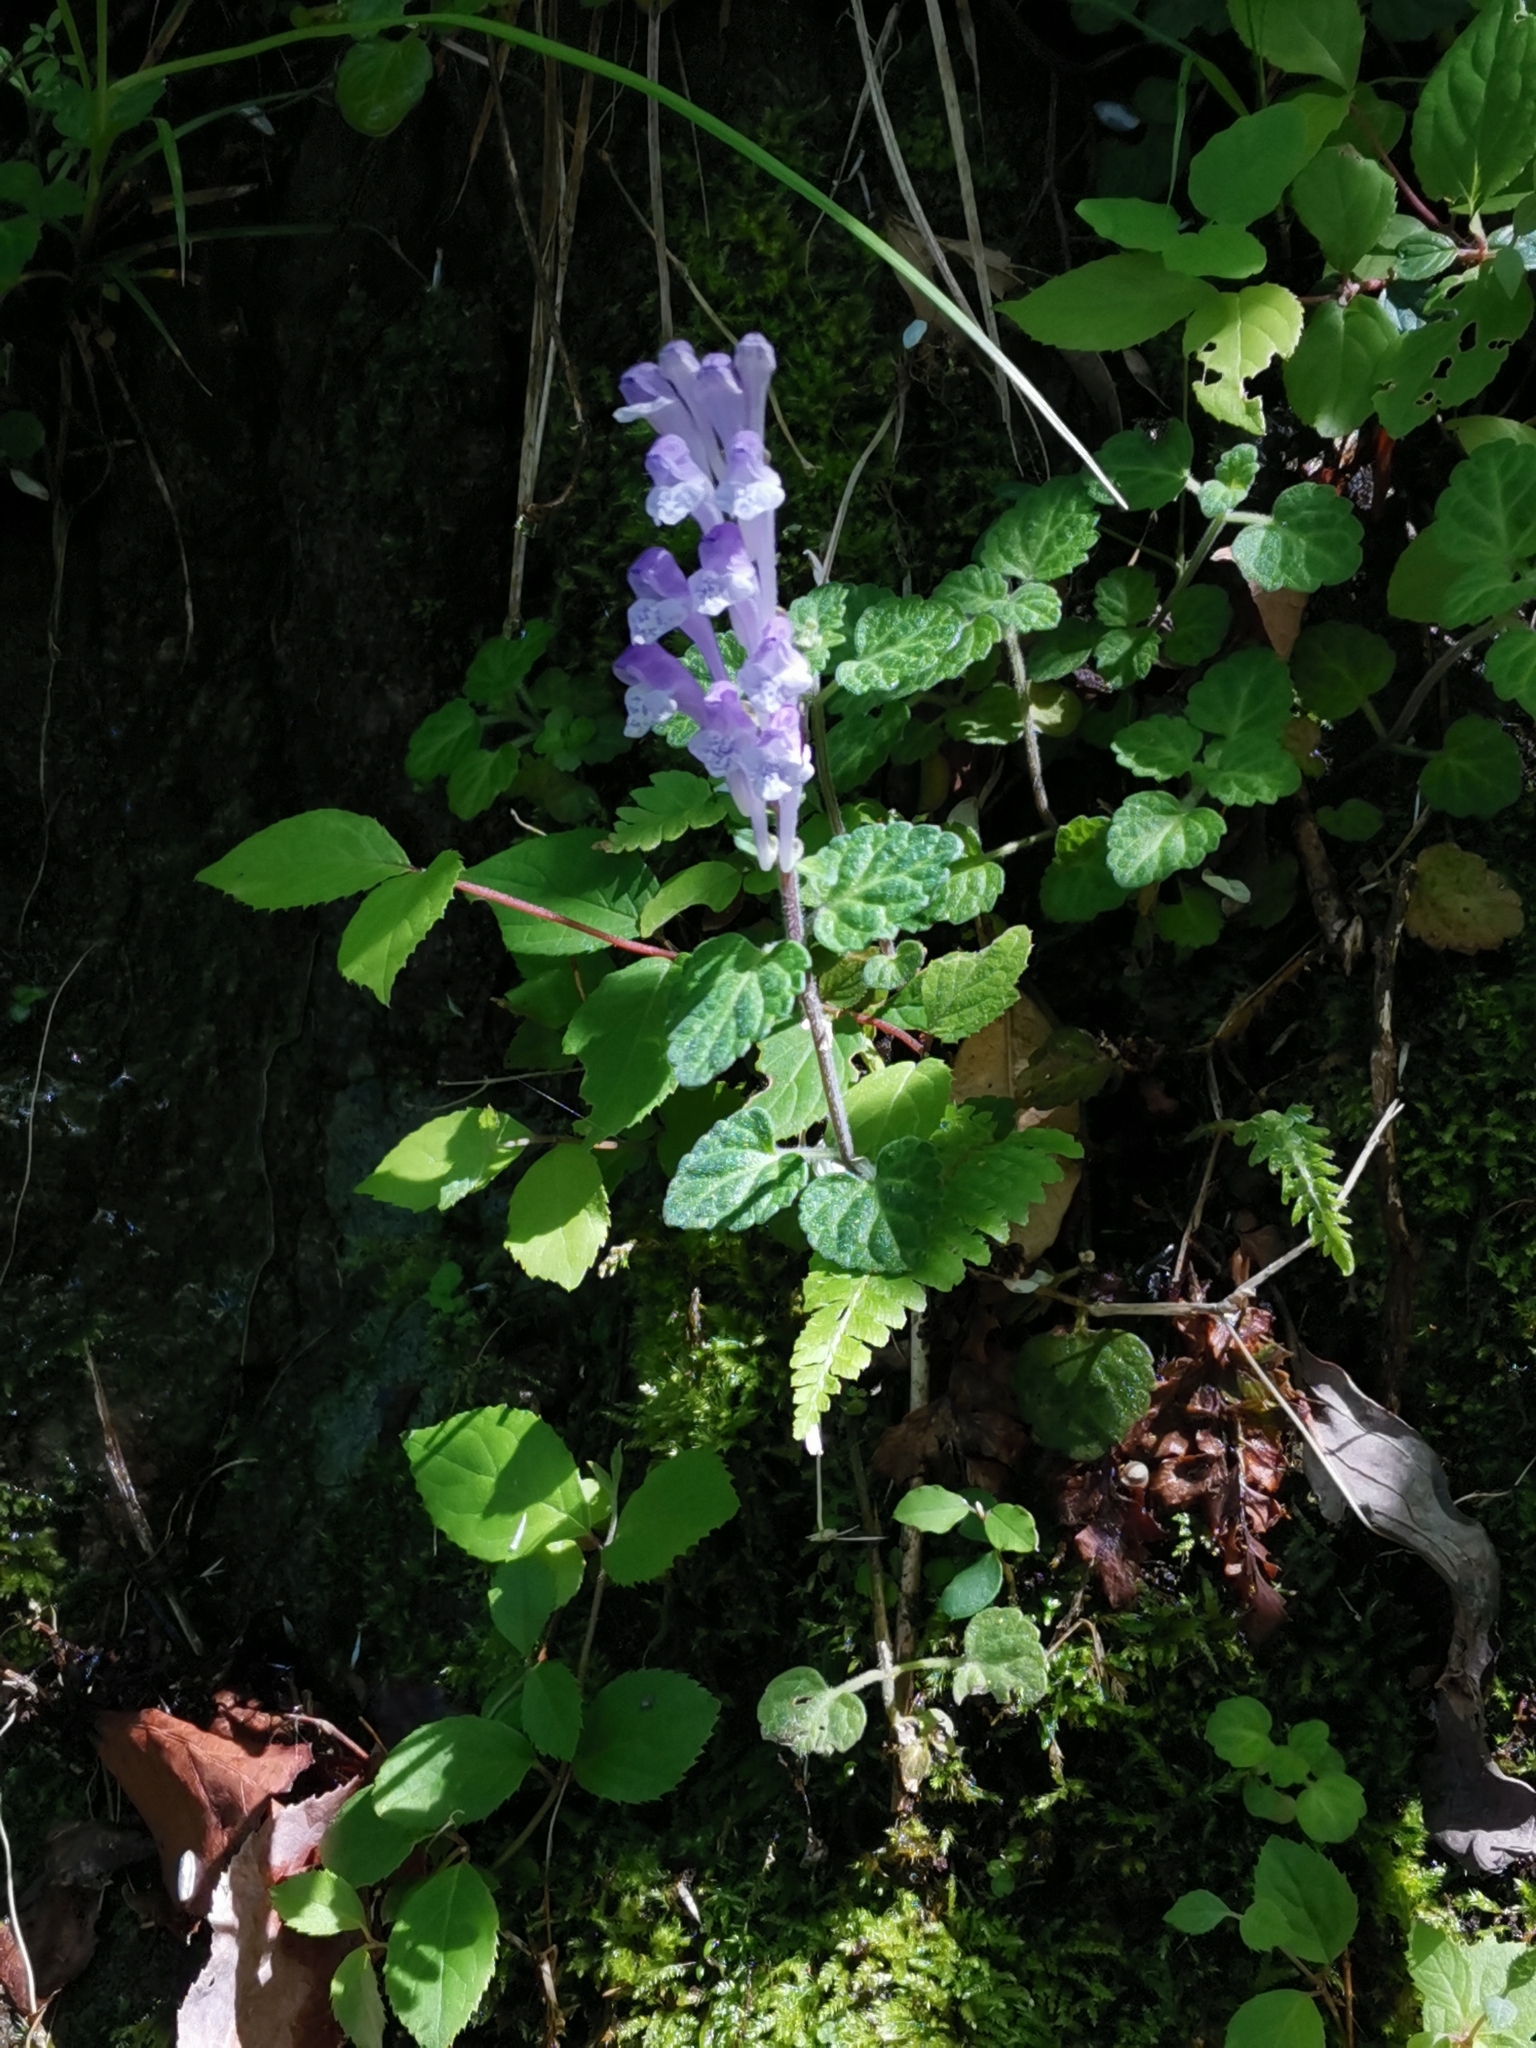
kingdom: Plantae
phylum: Tracheophyta
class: Magnoliopsida
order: Lamiales
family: Lamiaceae
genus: Scutellaria
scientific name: Scutellaria indica
